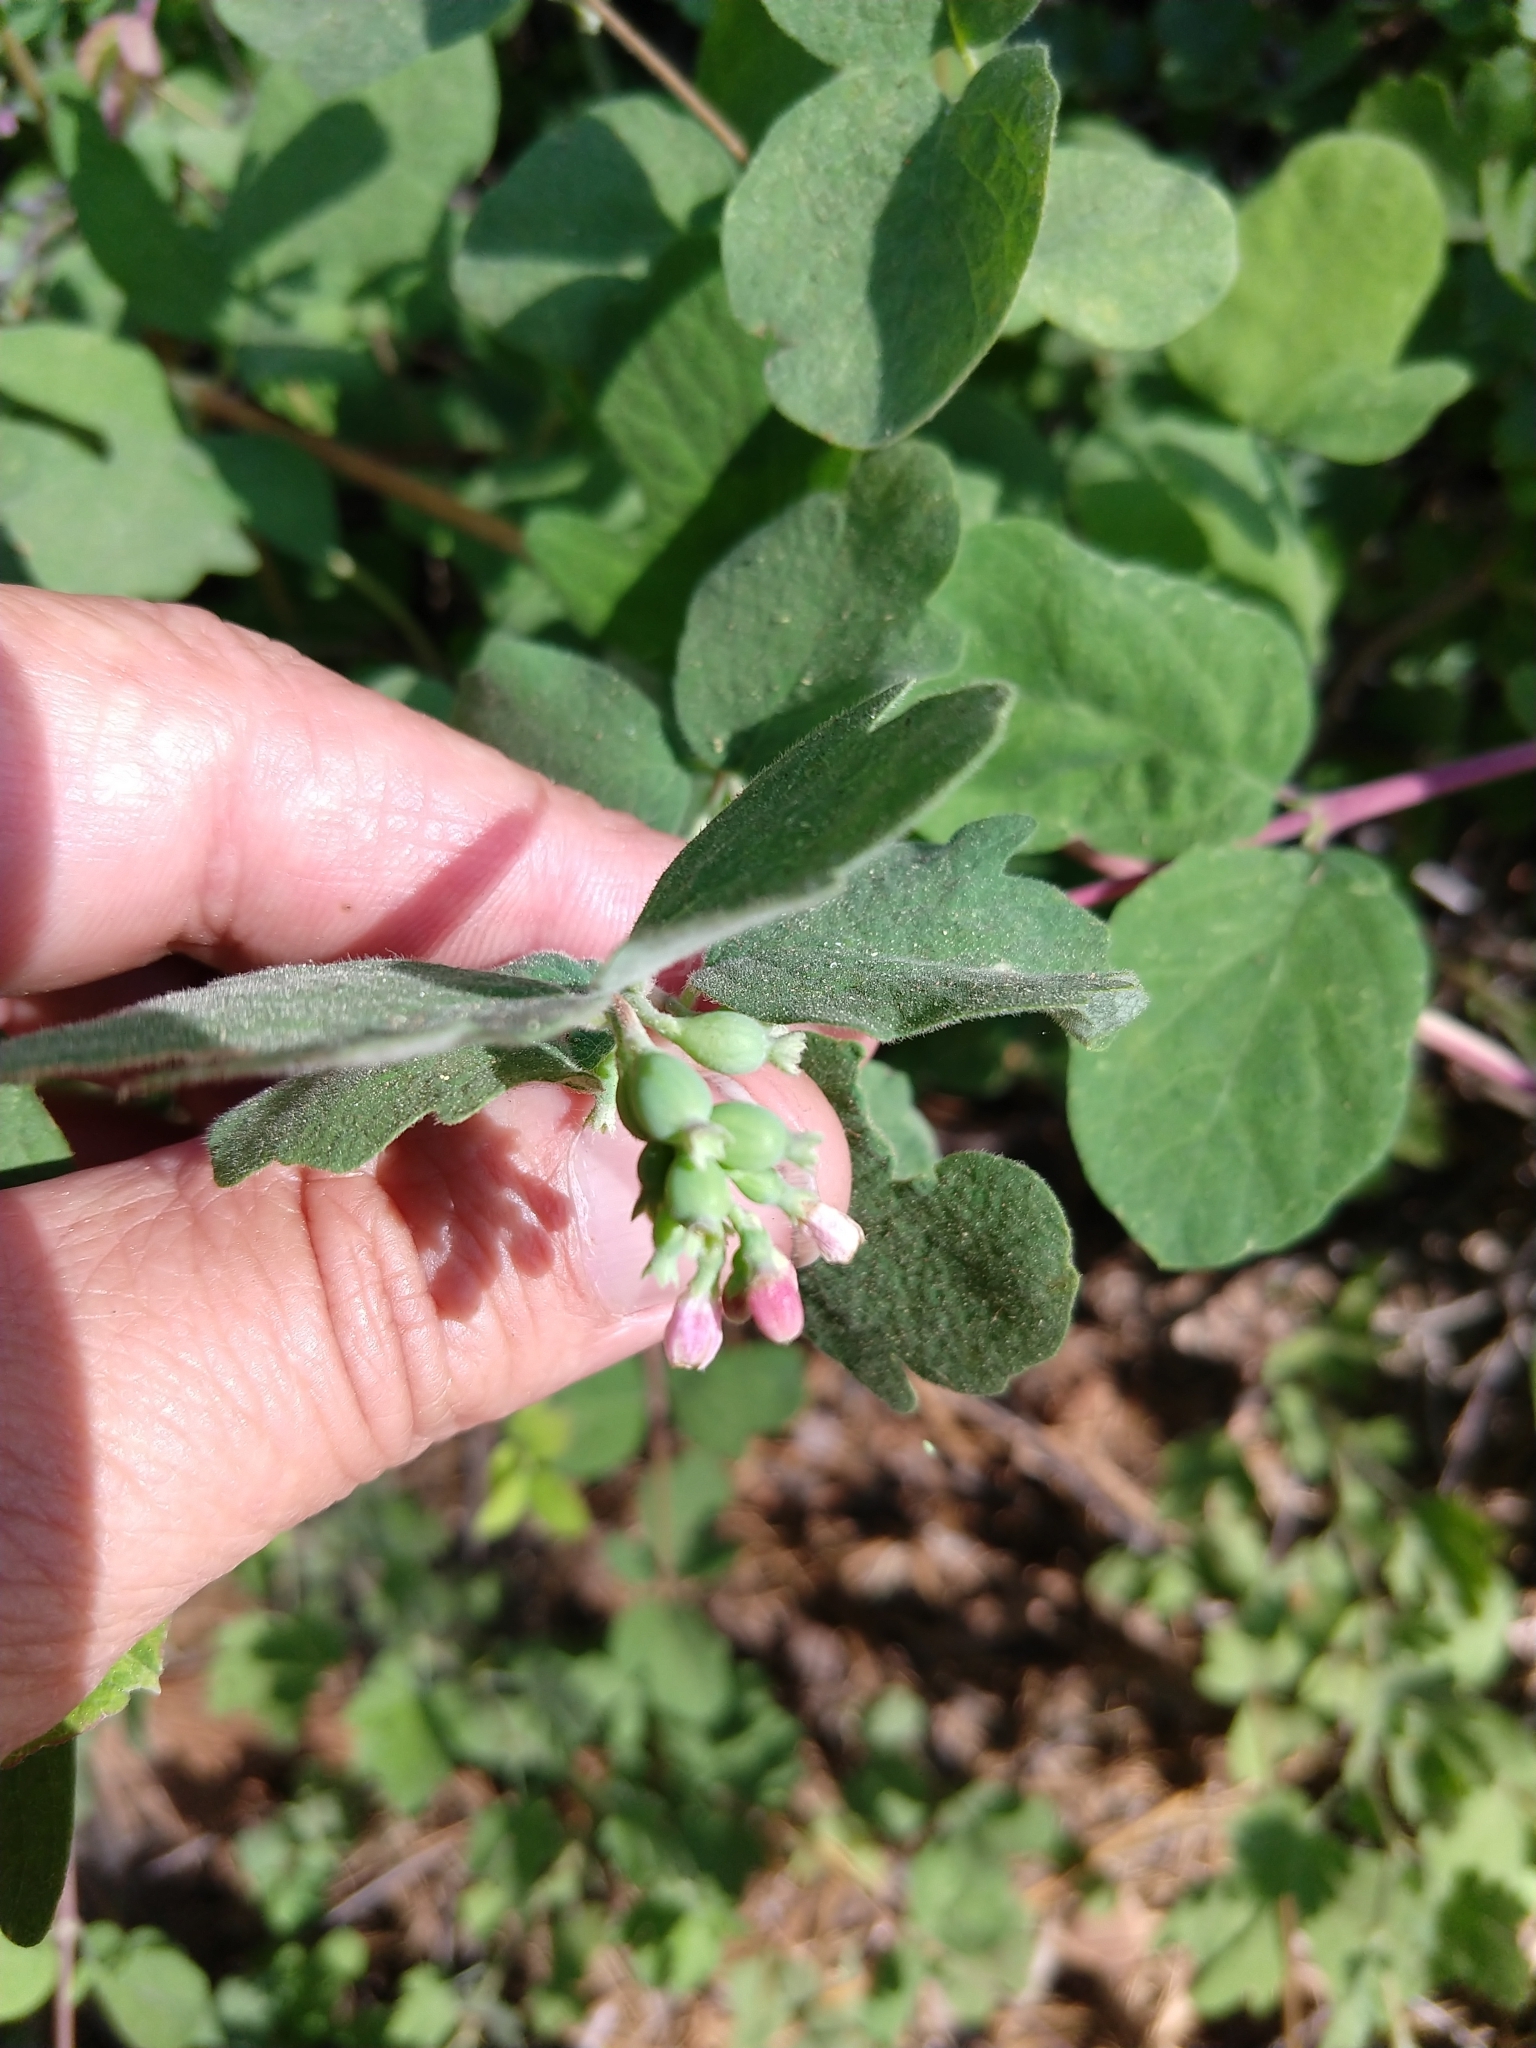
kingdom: Plantae
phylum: Tracheophyta
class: Magnoliopsida
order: Dipsacales
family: Caprifoliaceae
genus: Symphoricarpos
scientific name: Symphoricarpos albus
